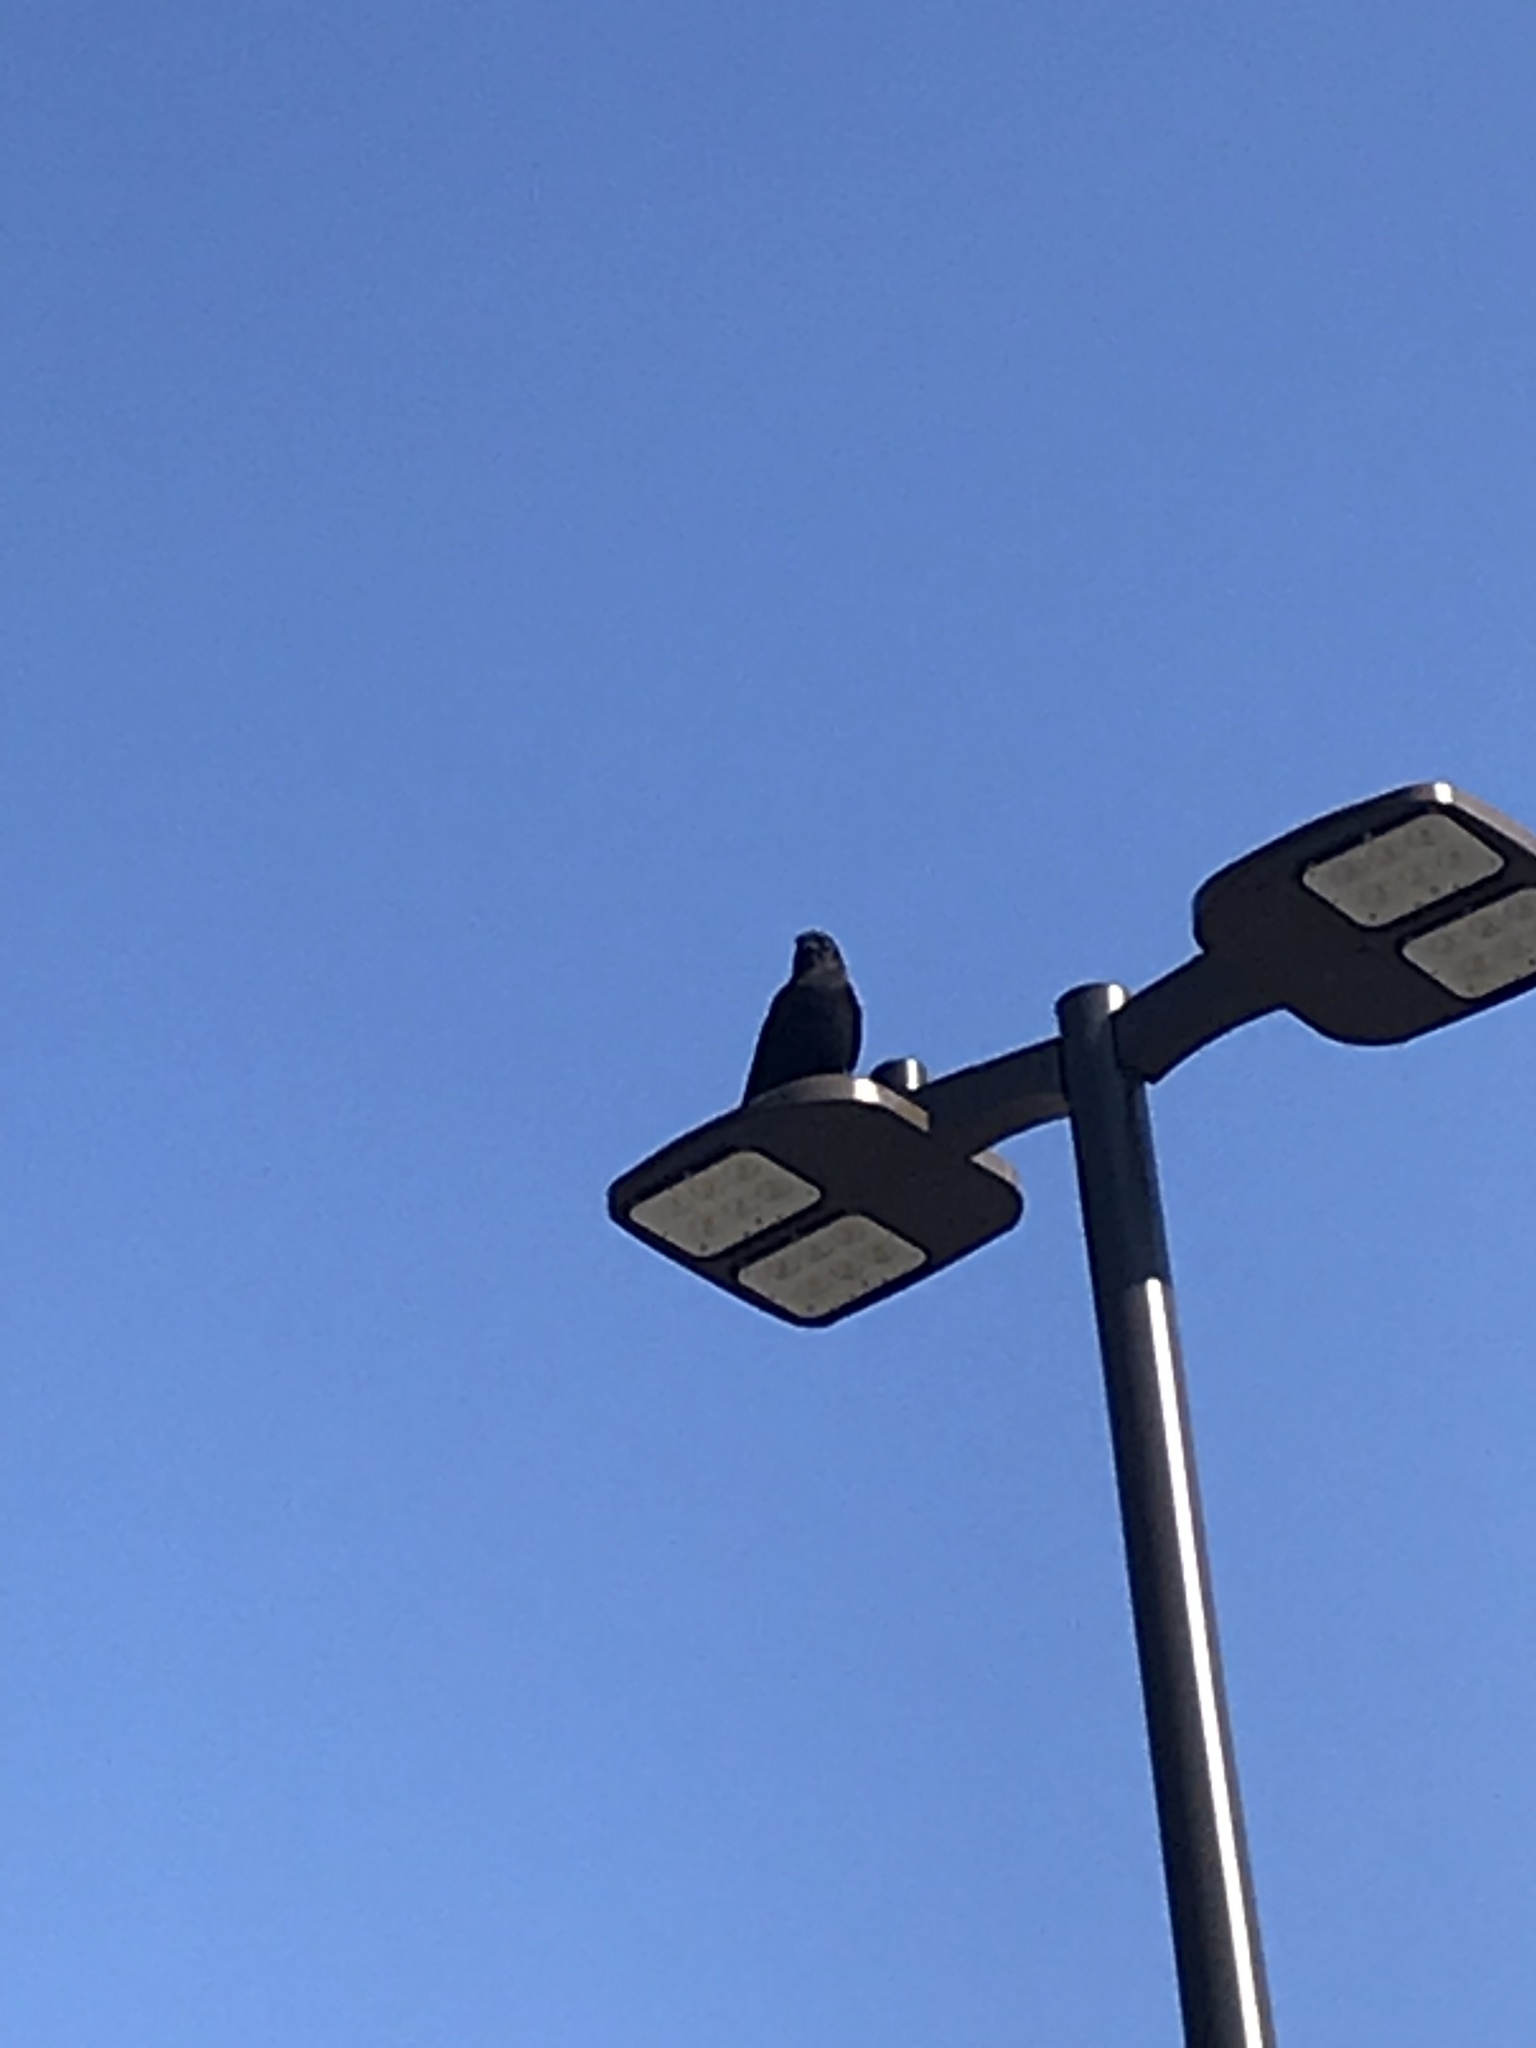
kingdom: Animalia
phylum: Chordata
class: Aves
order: Passeriformes
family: Corvidae
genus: Corvus
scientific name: Corvus brachyrhynchos
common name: American crow
